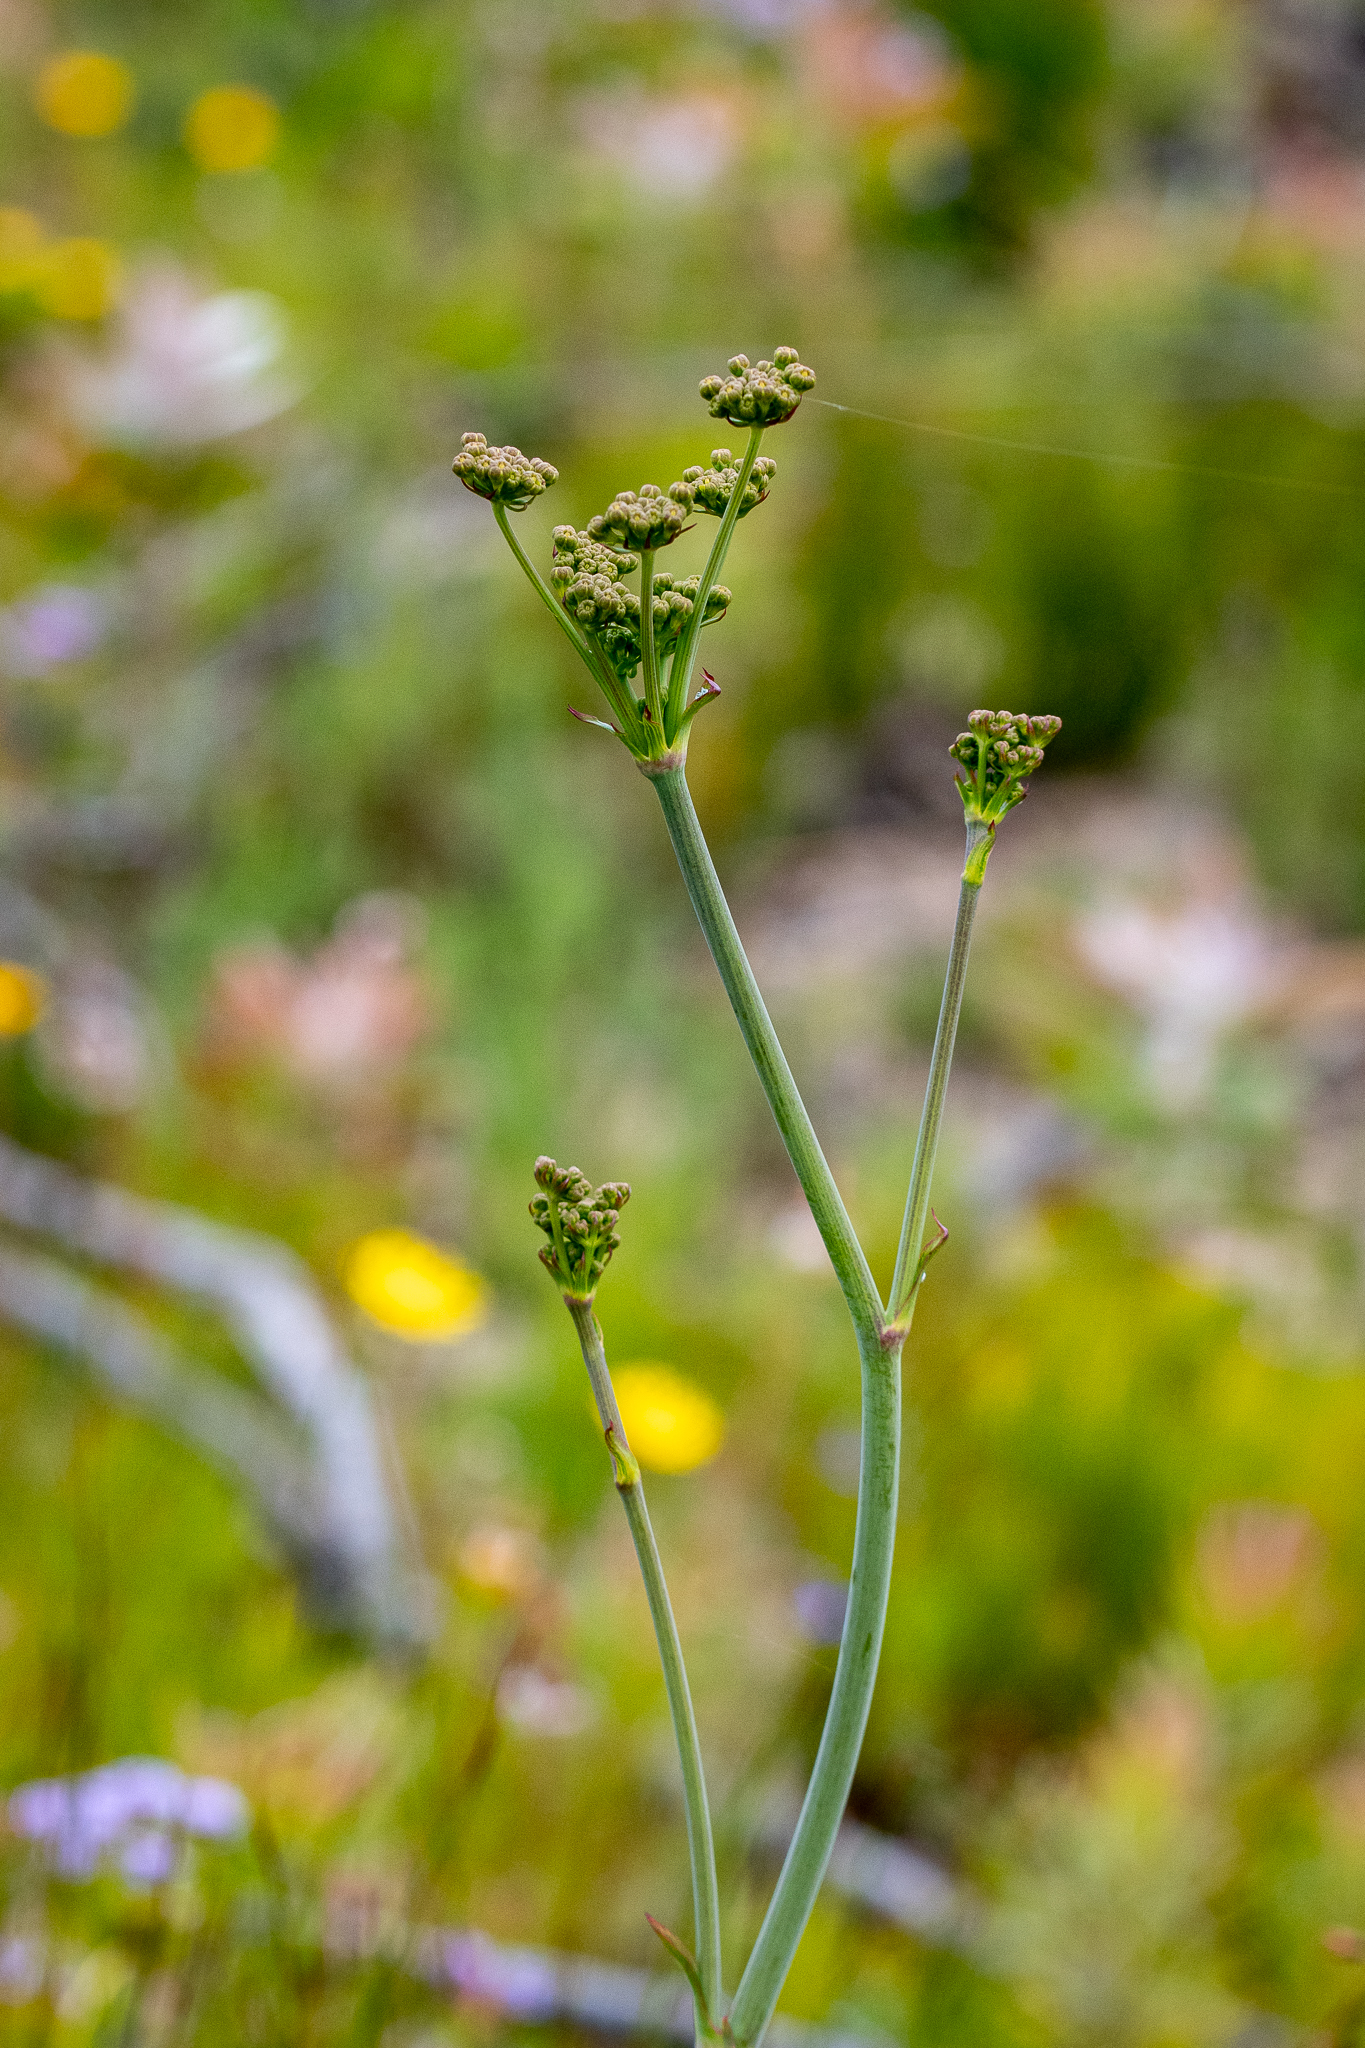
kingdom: Plantae
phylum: Tracheophyta
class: Magnoliopsida
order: Apiales
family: Apiaceae
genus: Lichtensteinia
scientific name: Lichtensteinia lacera
